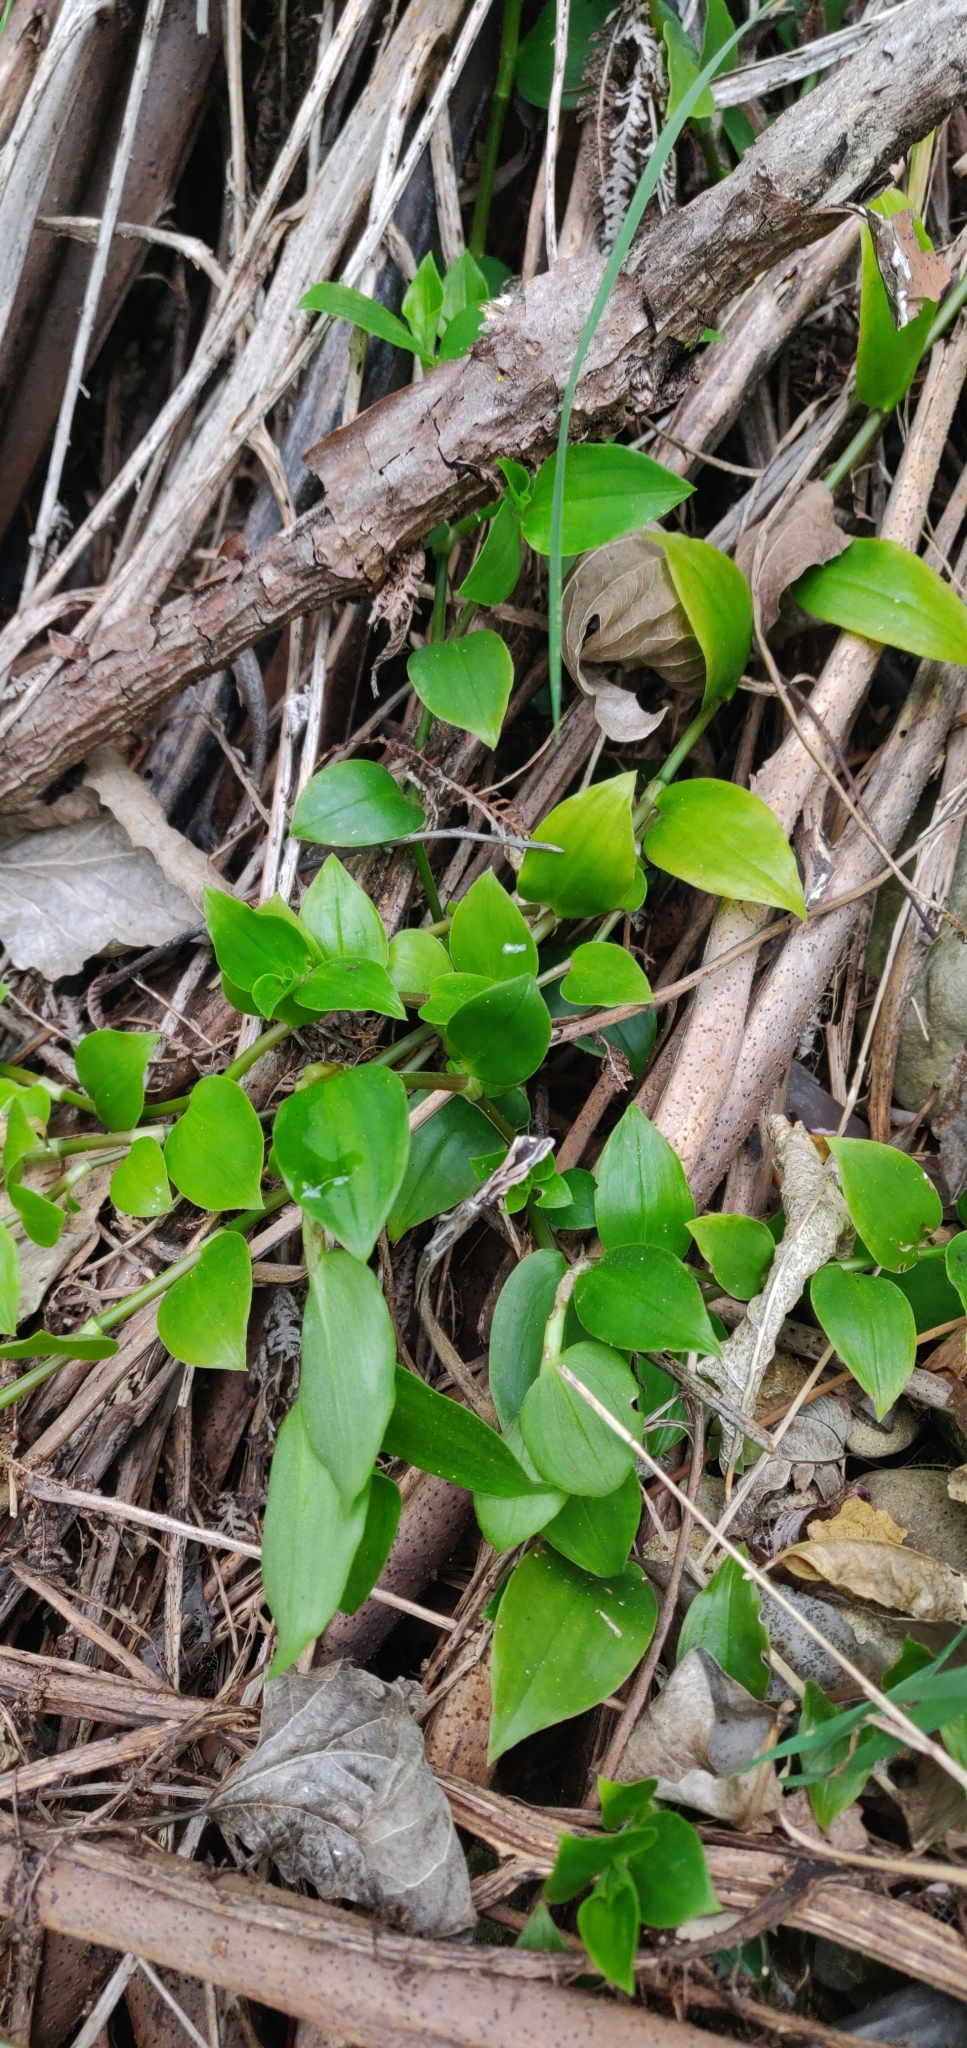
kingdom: Plantae
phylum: Tracheophyta
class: Liliopsida
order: Commelinales
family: Commelinaceae
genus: Tradescantia
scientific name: Tradescantia fluminensis
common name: Wandering-jew
